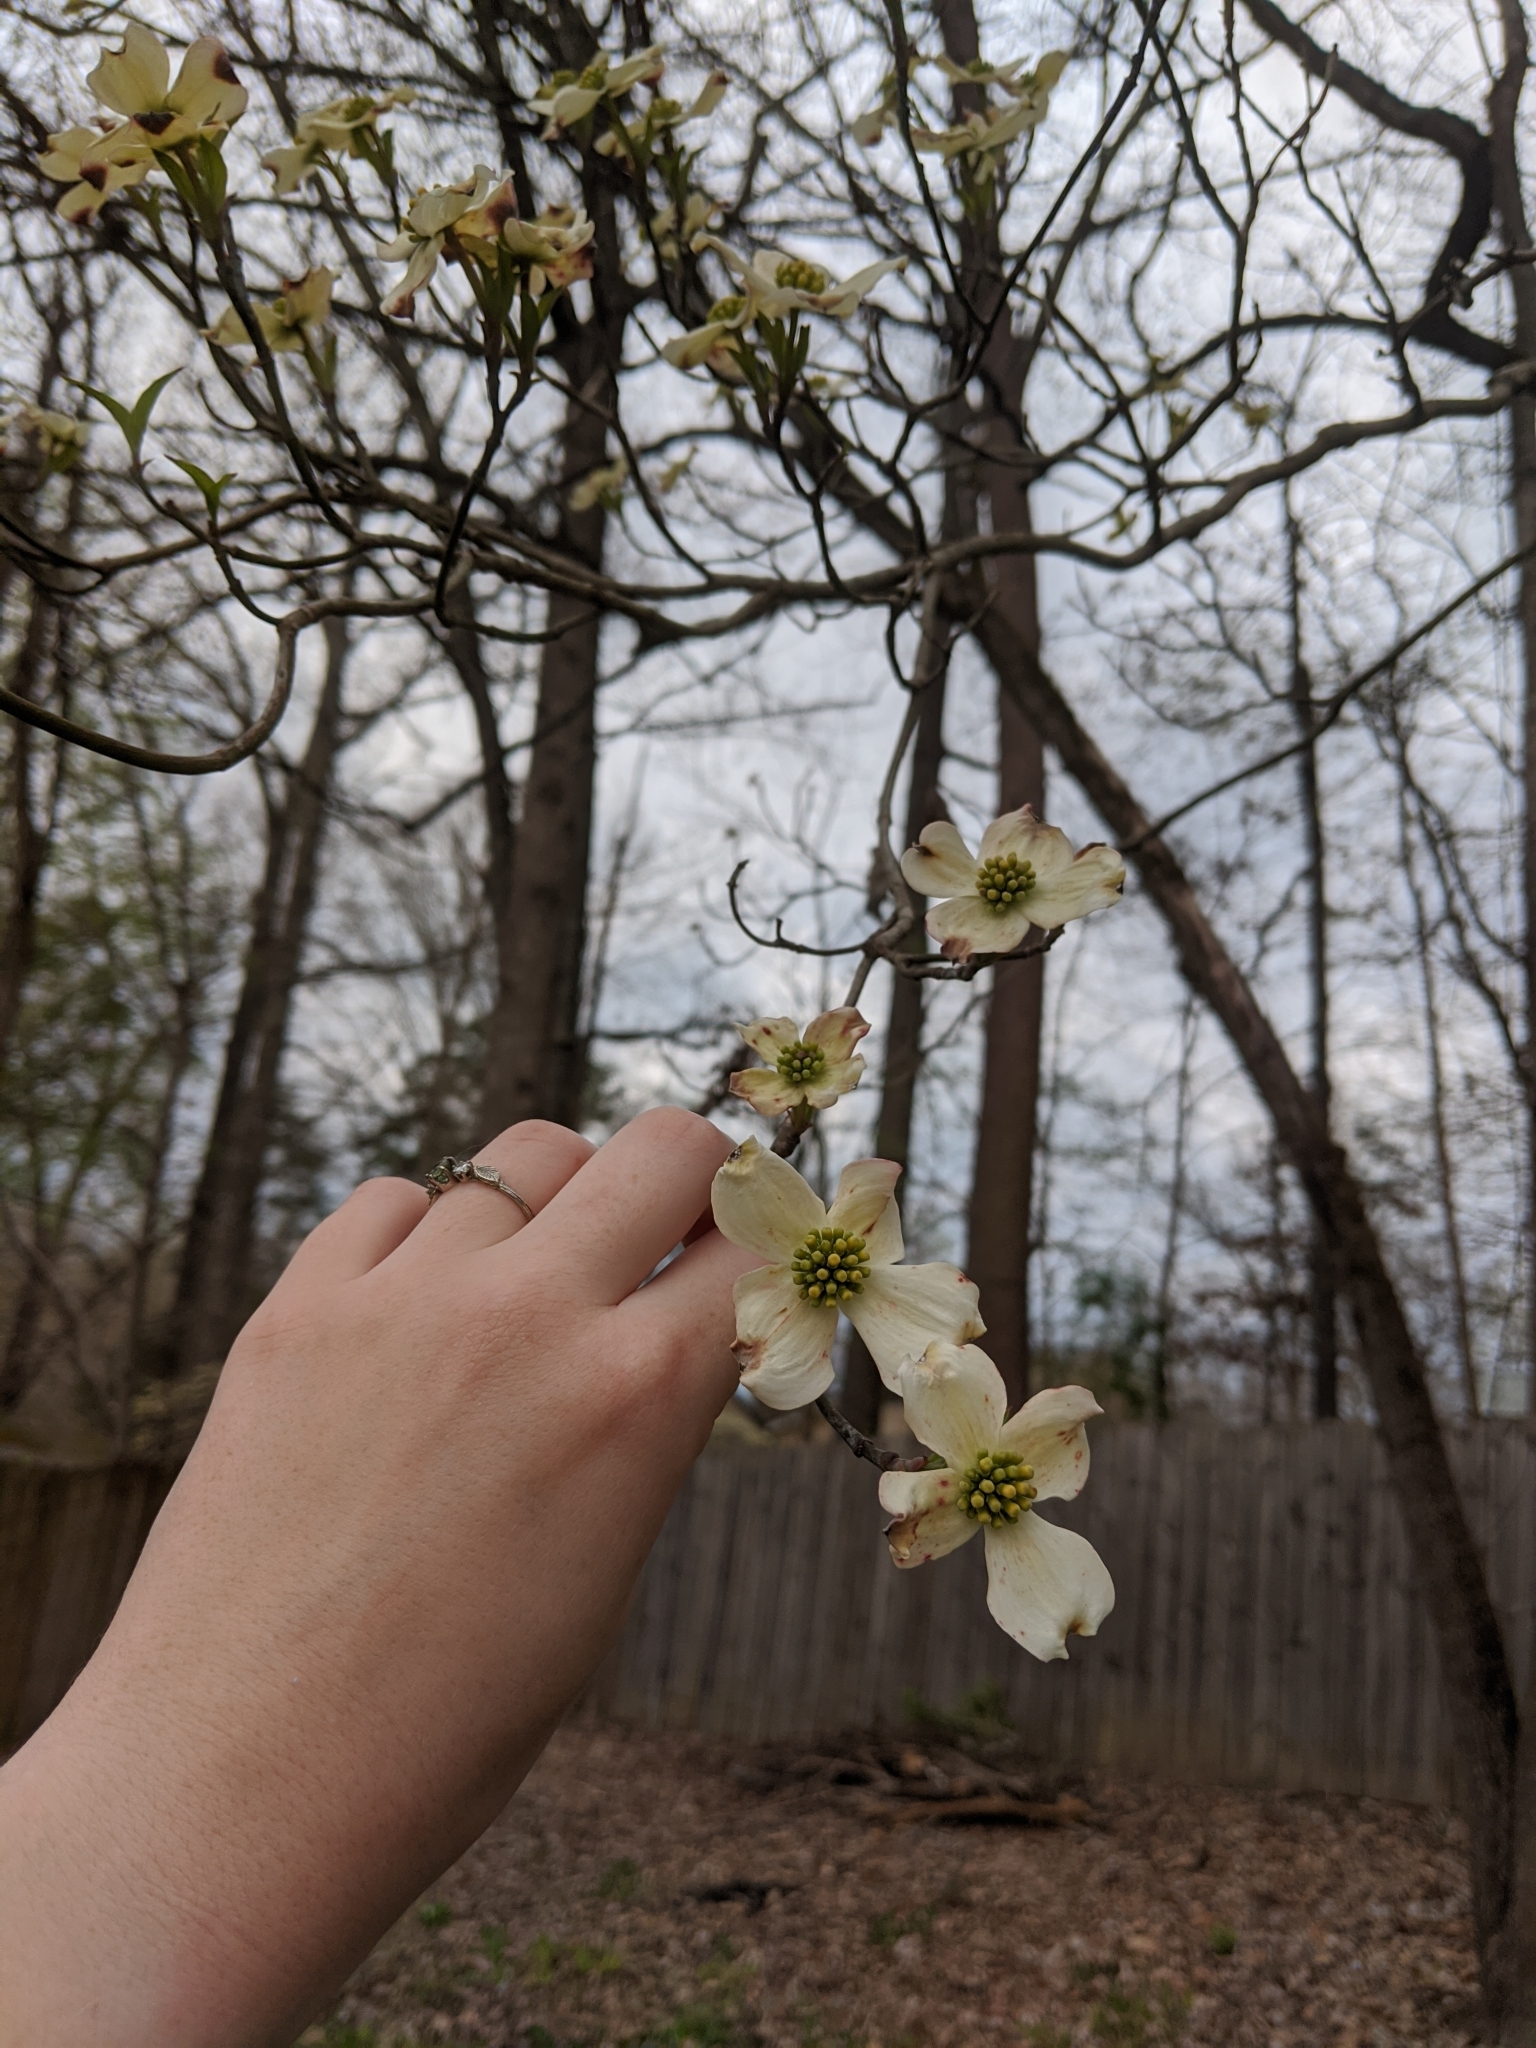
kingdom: Plantae
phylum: Tracheophyta
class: Magnoliopsida
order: Cornales
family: Cornaceae
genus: Cornus
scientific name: Cornus florida
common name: Flowering dogwood
